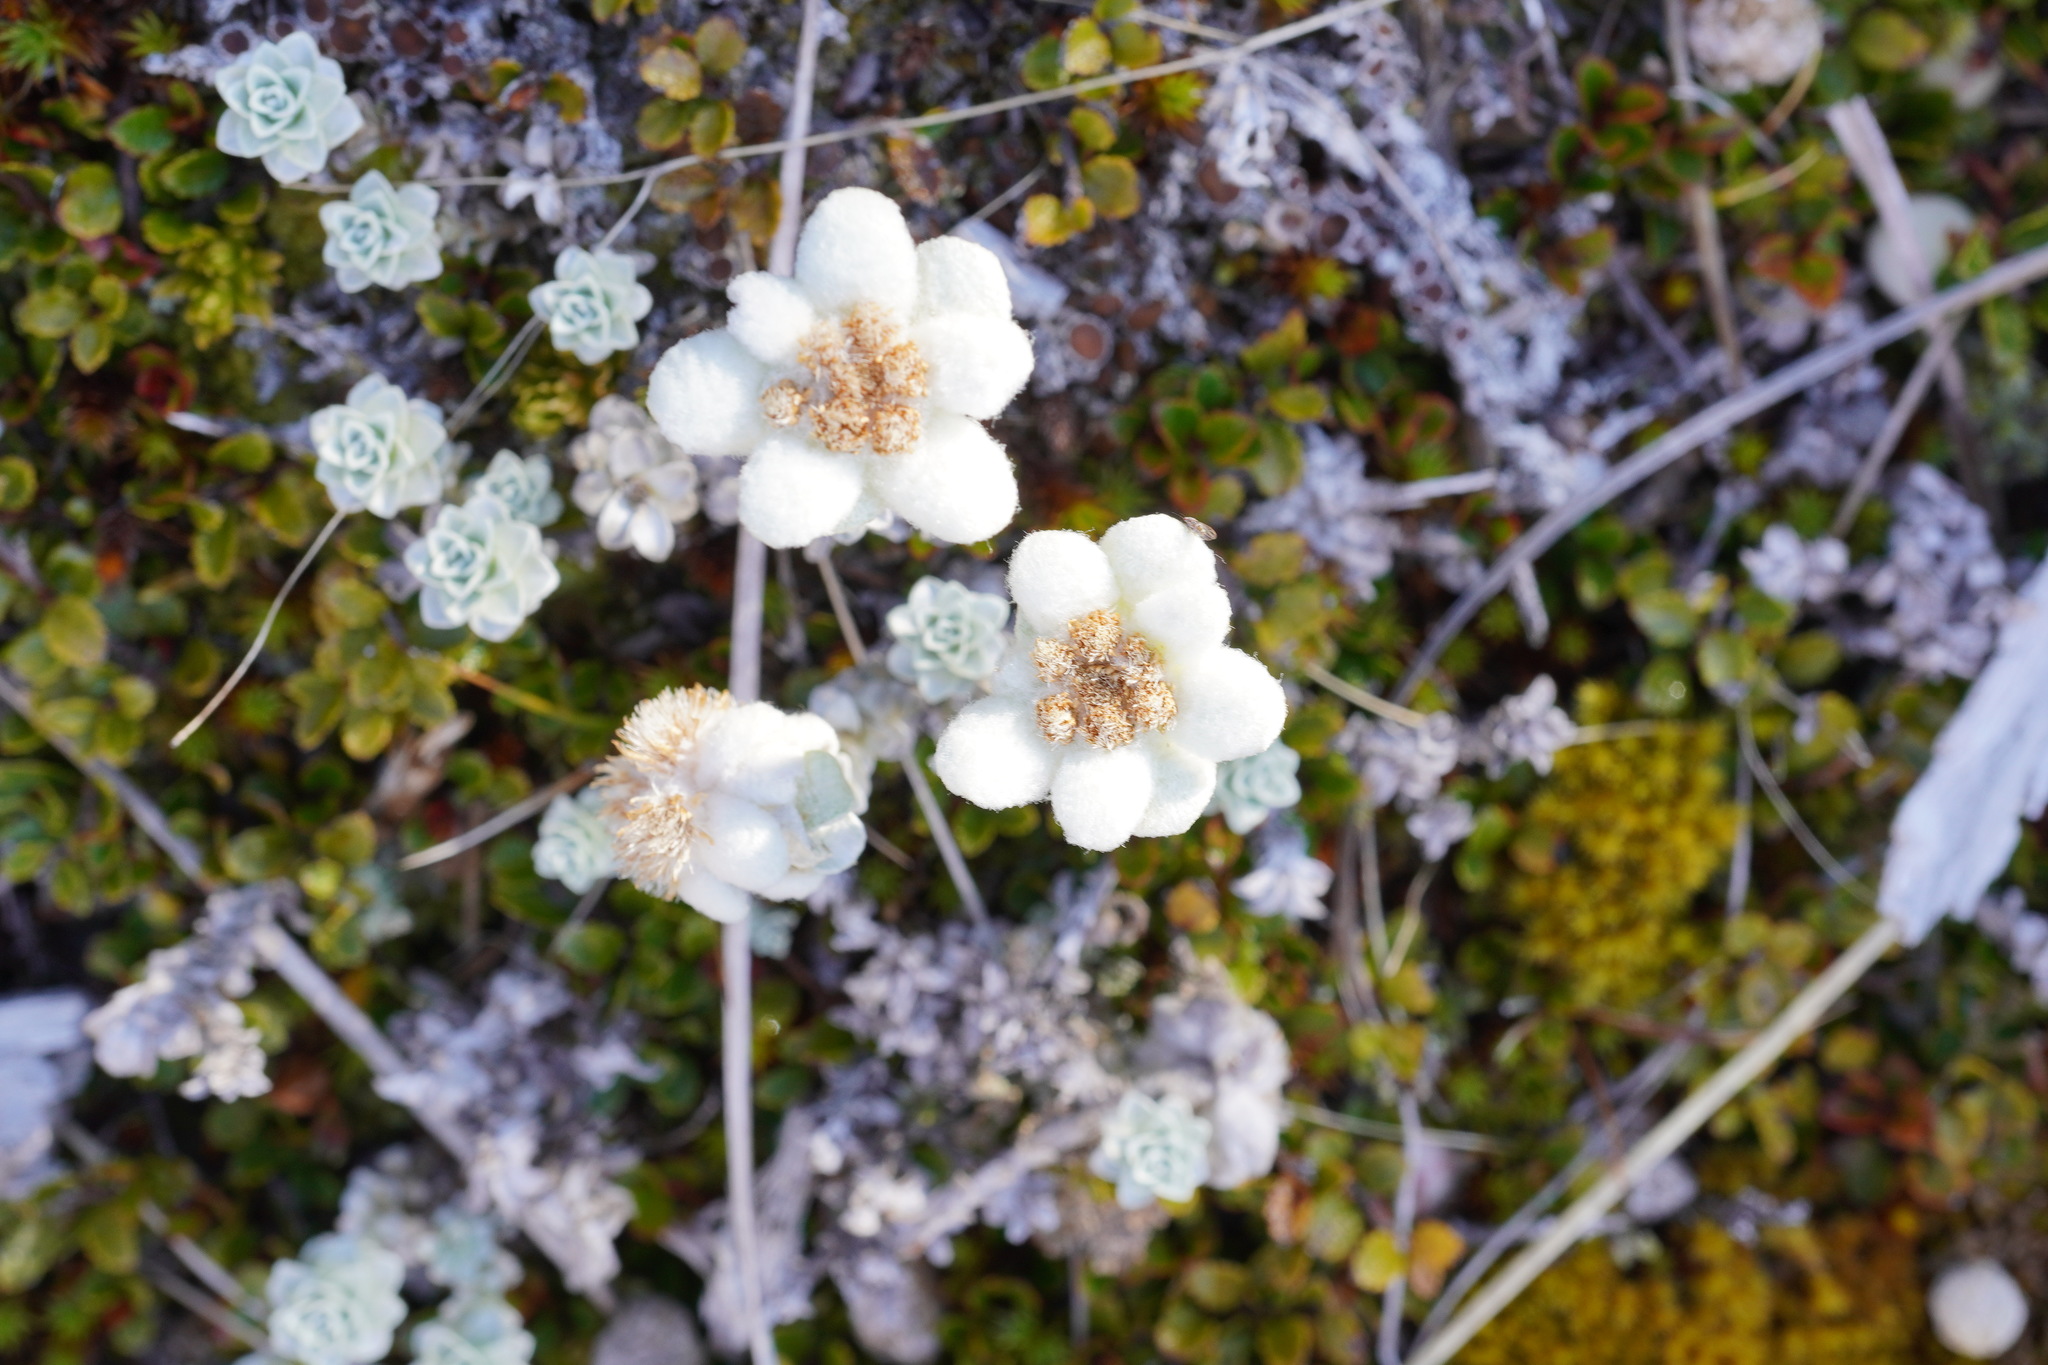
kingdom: Plantae
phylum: Tracheophyta
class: Magnoliopsida
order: Asterales
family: Asteraceae
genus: Leucogenes
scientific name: Leucogenes grandiceps
